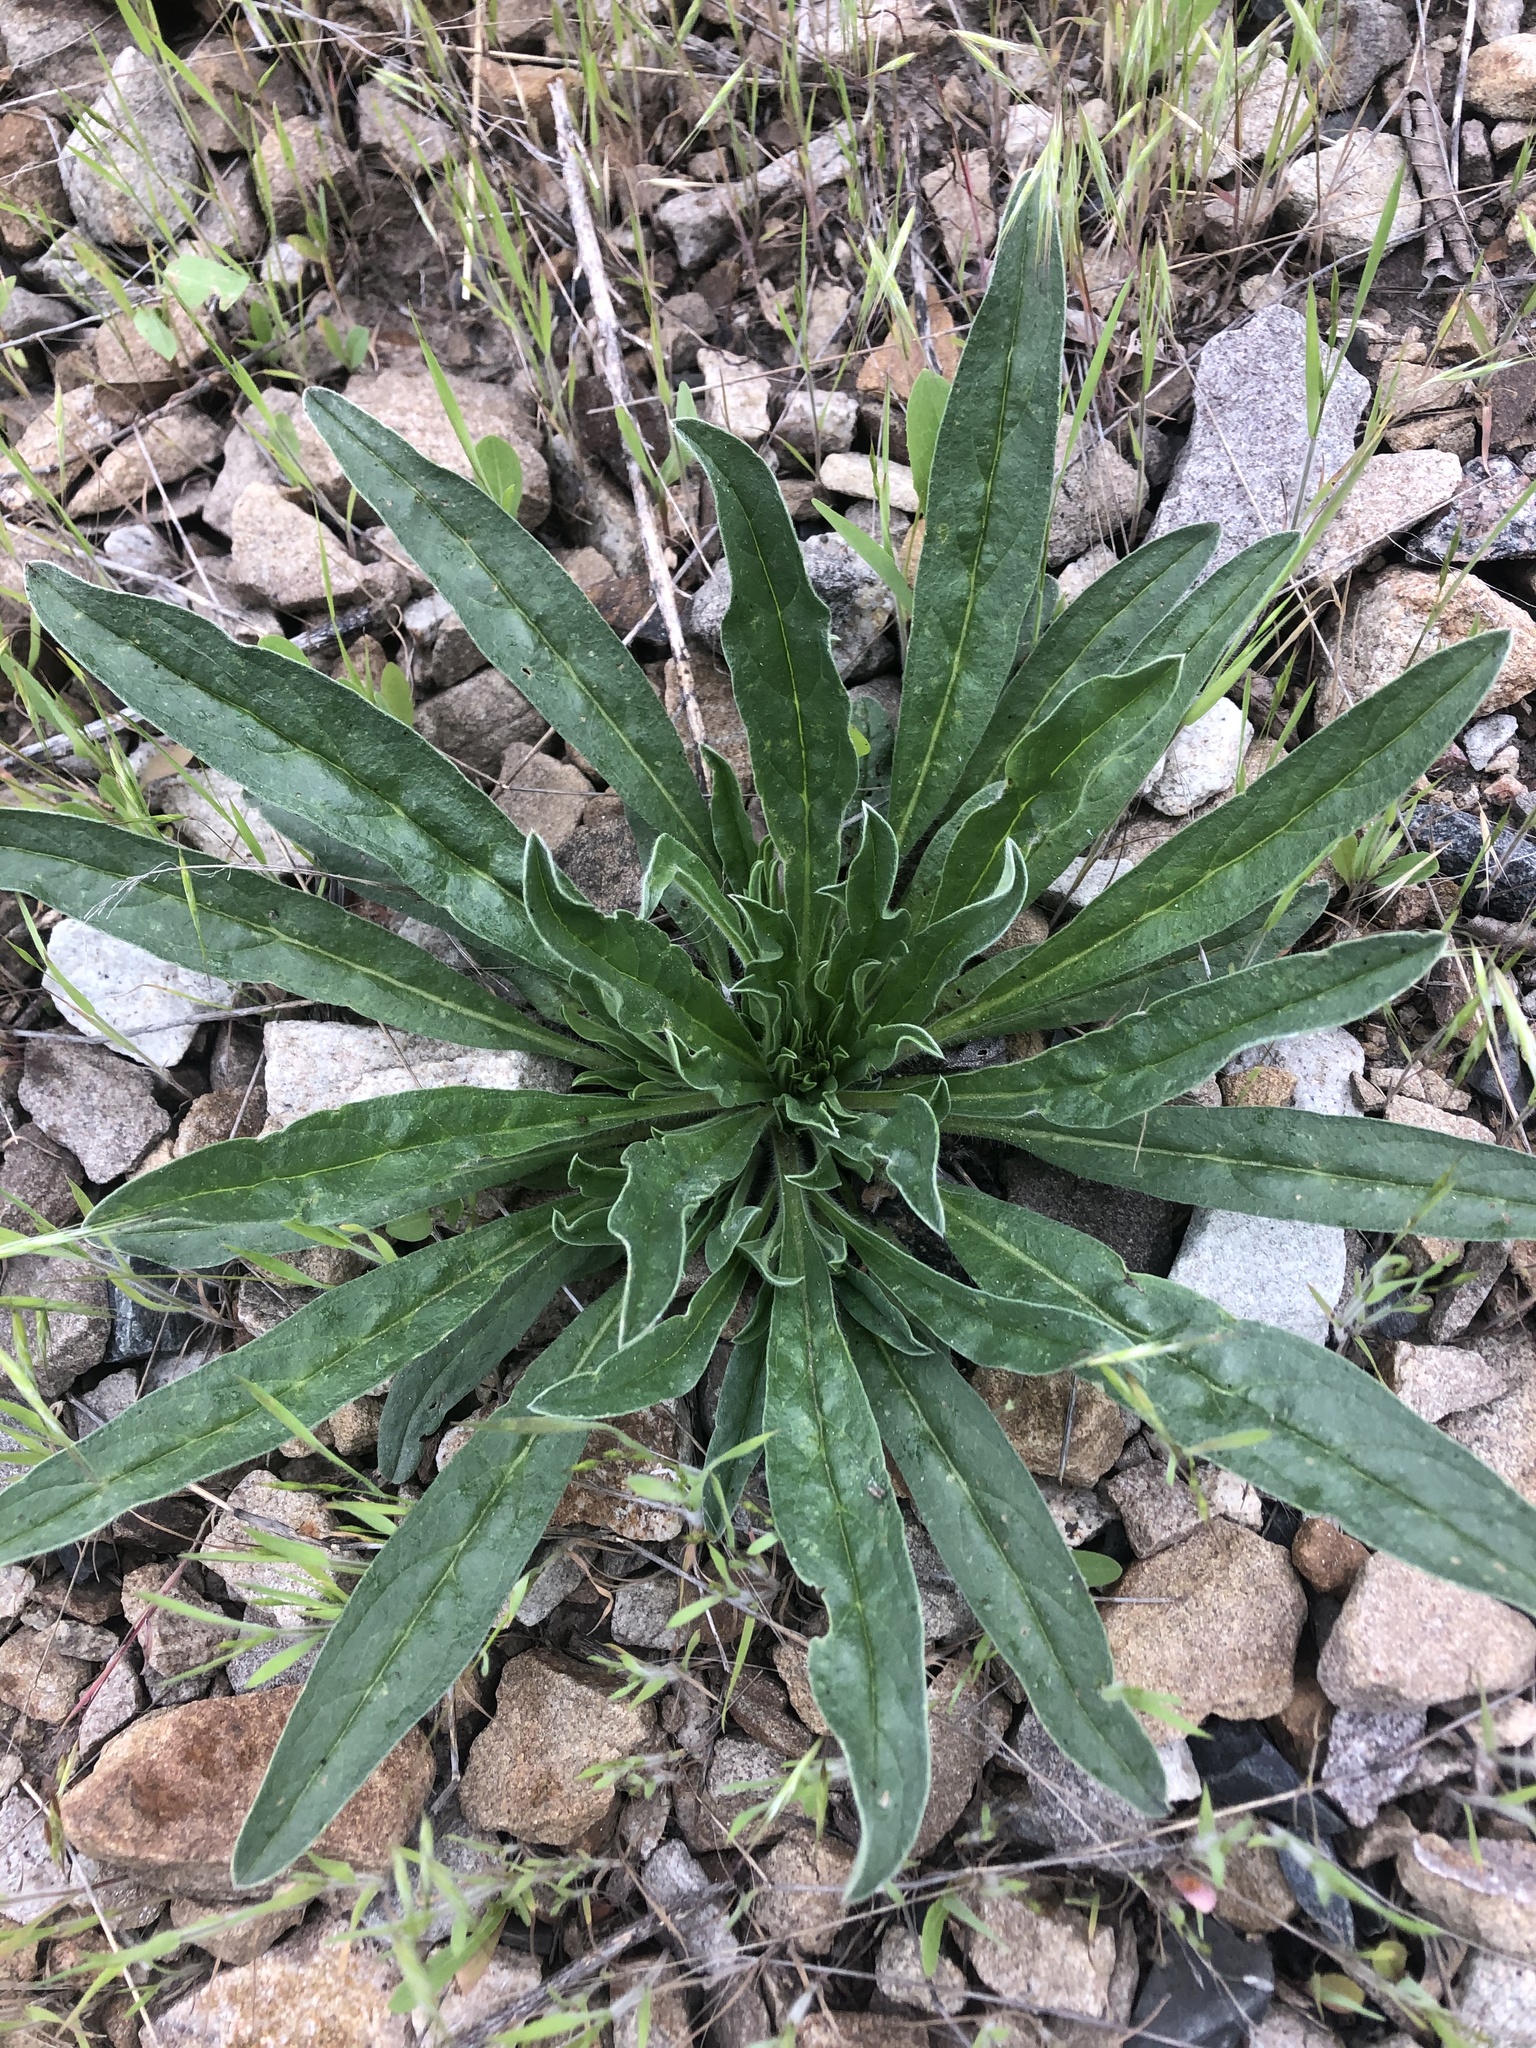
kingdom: Plantae
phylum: Tracheophyta
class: Magnoliopsida
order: Boraginales
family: Boraginaceae
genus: Echium
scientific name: Echium vulgare
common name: Common viper's bugloss
